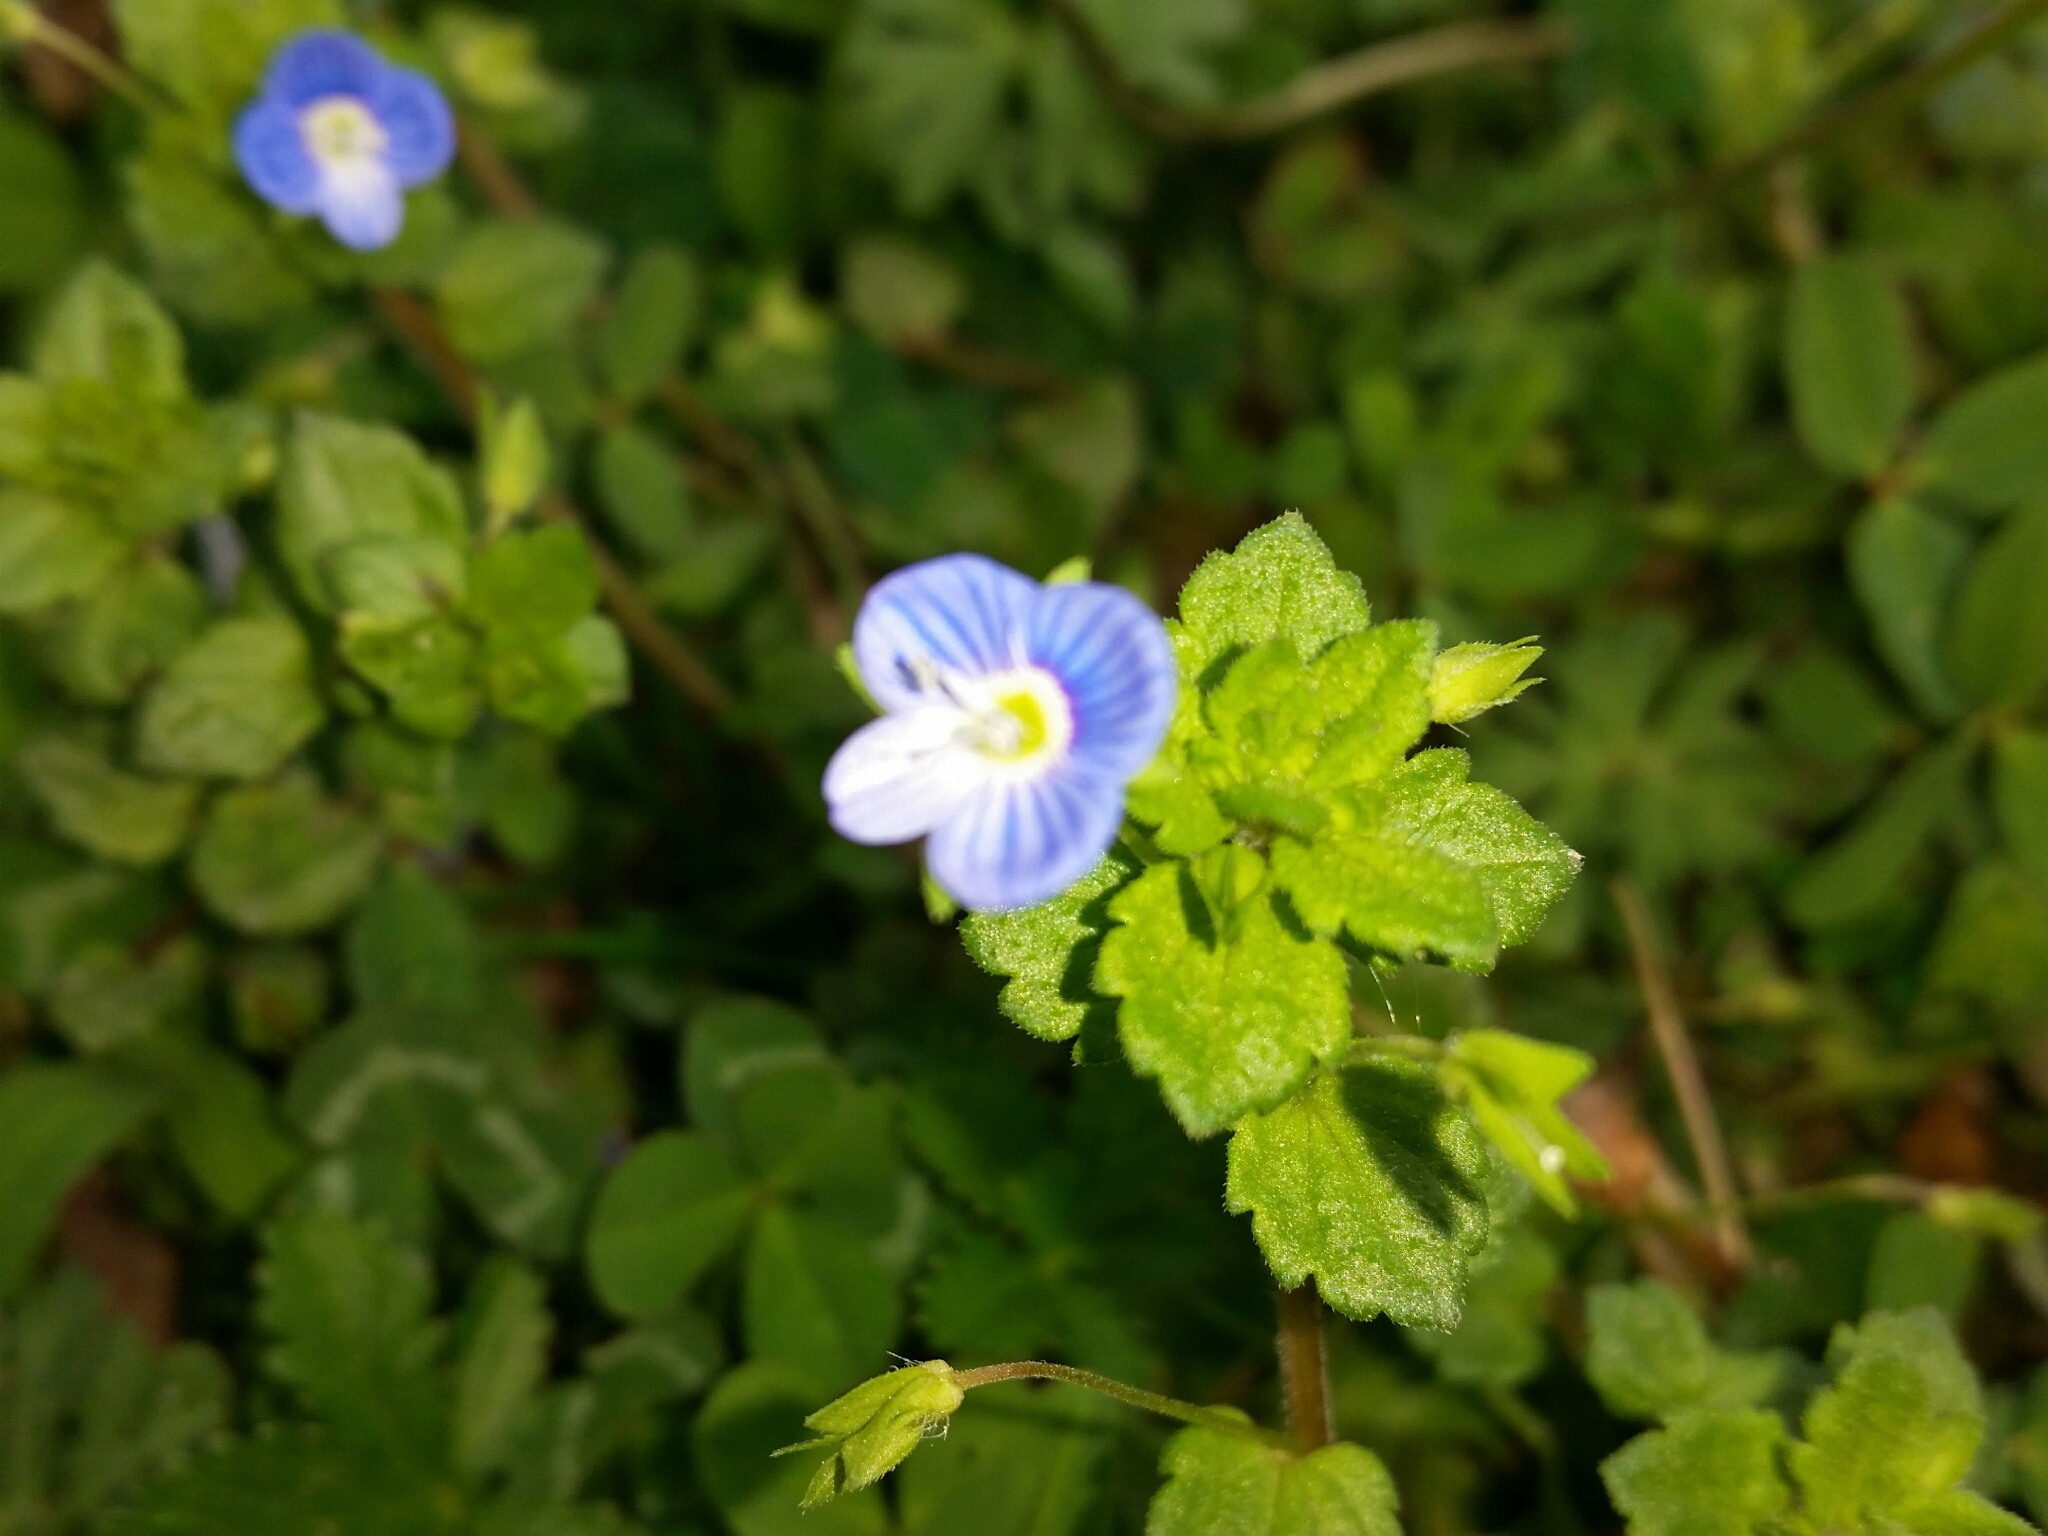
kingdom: Plantae
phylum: Tracheophyta
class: Magnoliopsida
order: Lamiales
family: Plantaginaceae
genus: Veronica
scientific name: Veronica persica
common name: Common field-speedwell
